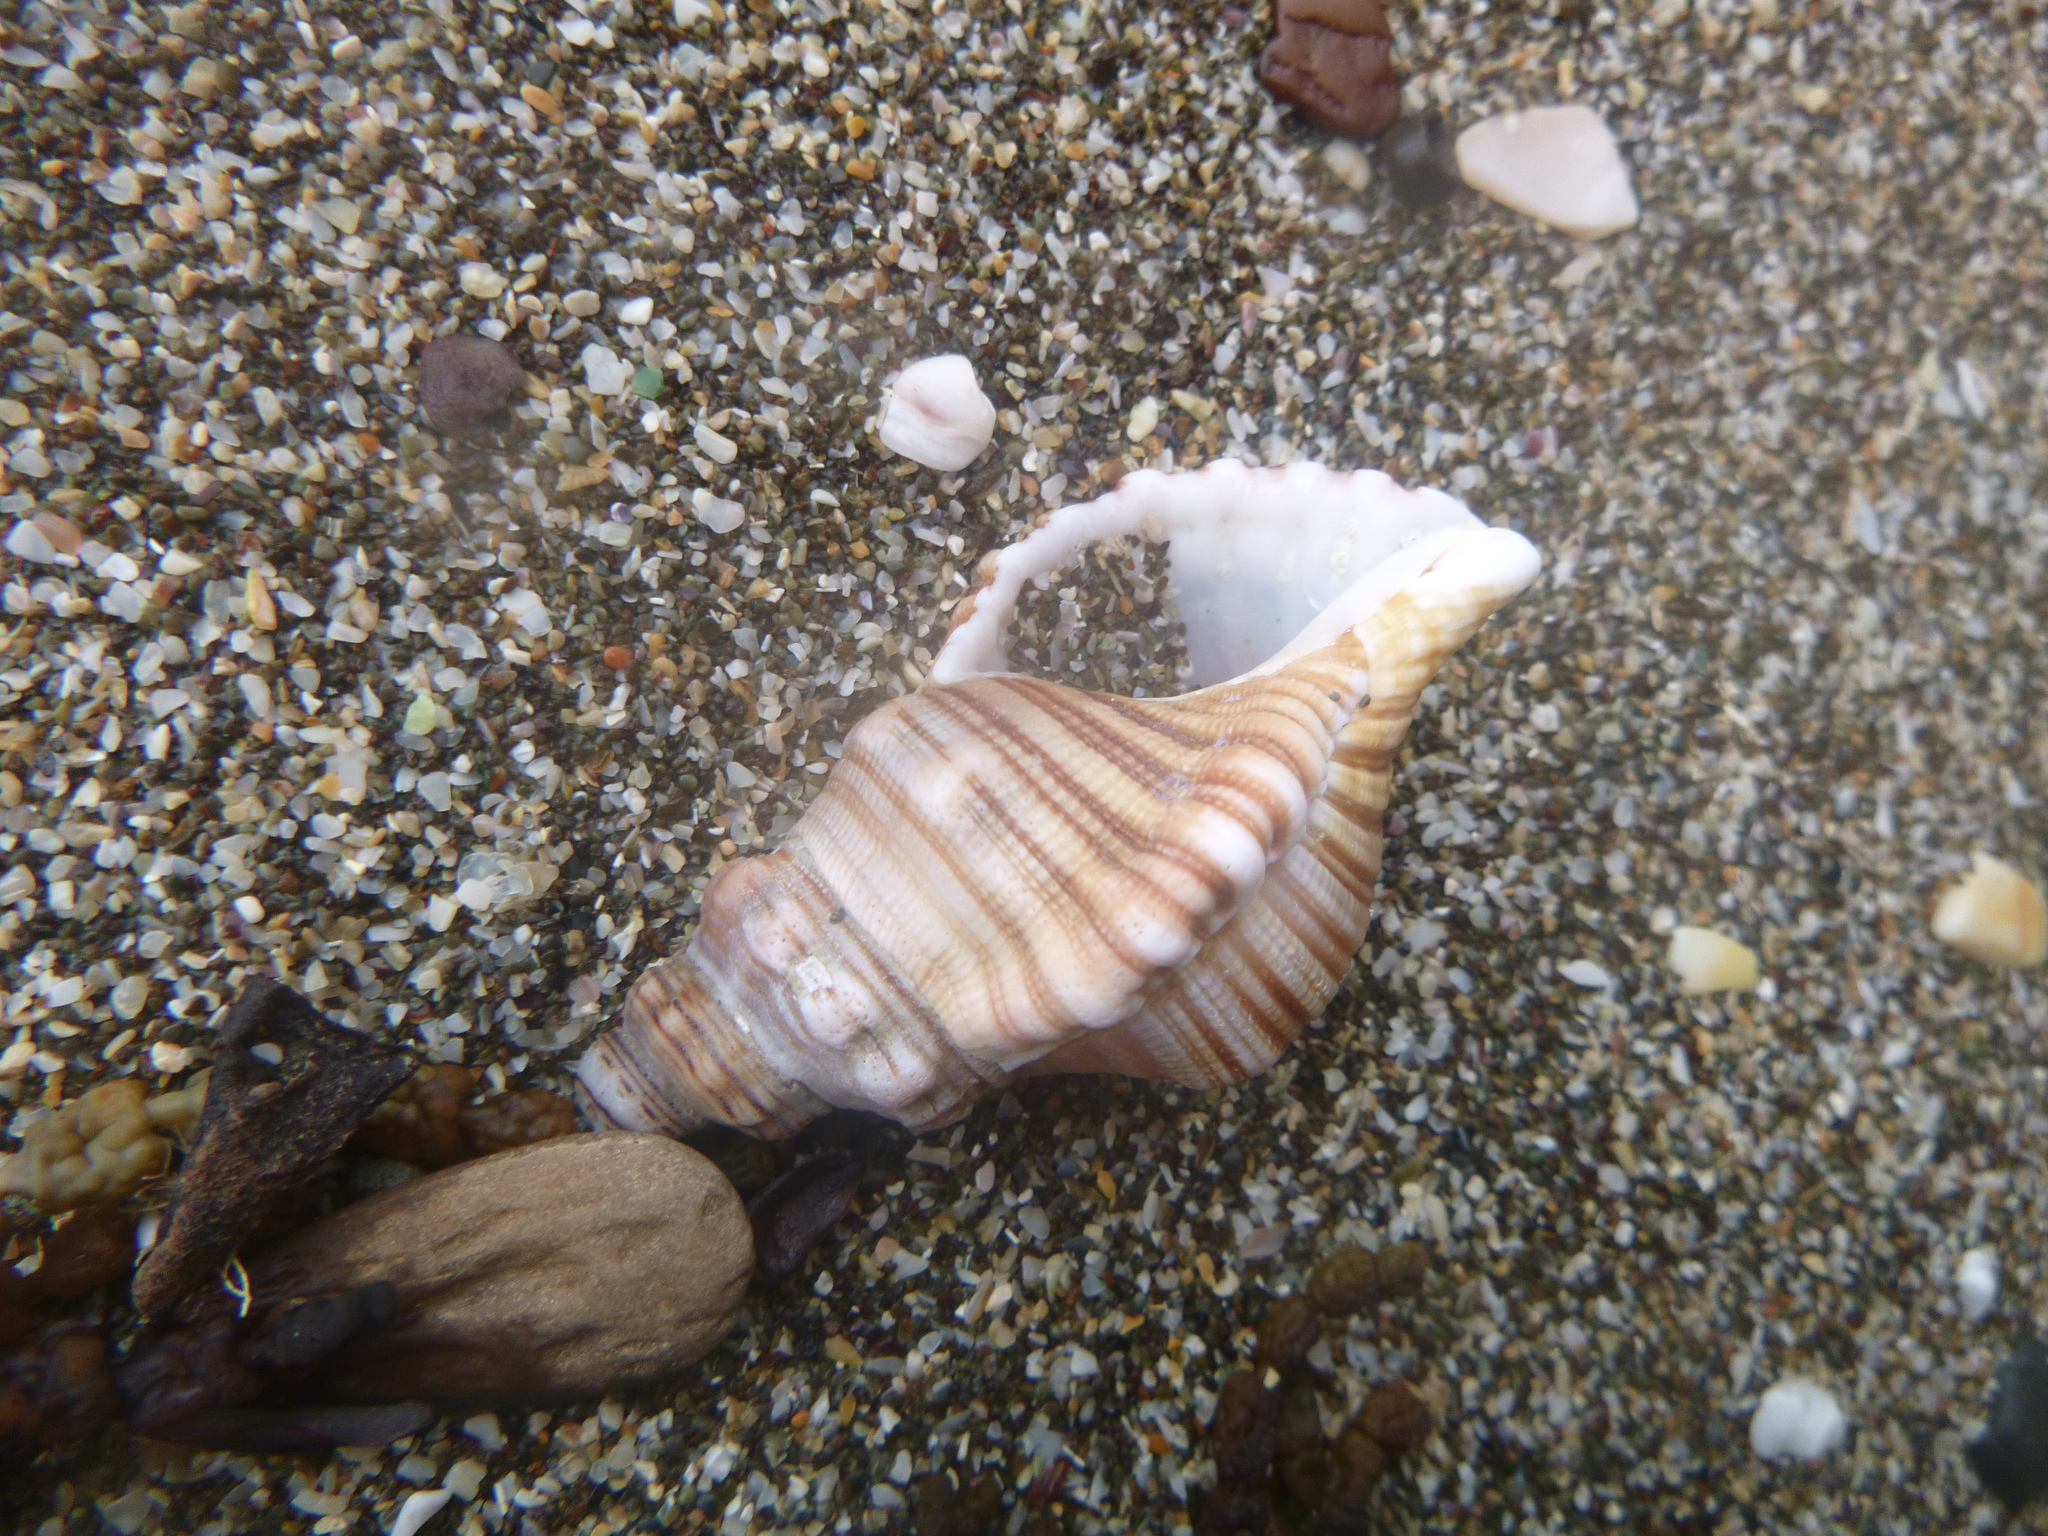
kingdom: Animalia
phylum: Mollusca
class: Gastropoda
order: Littorinimorpha
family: Cymatiidae
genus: Cabestana
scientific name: Cabestana spengleri
